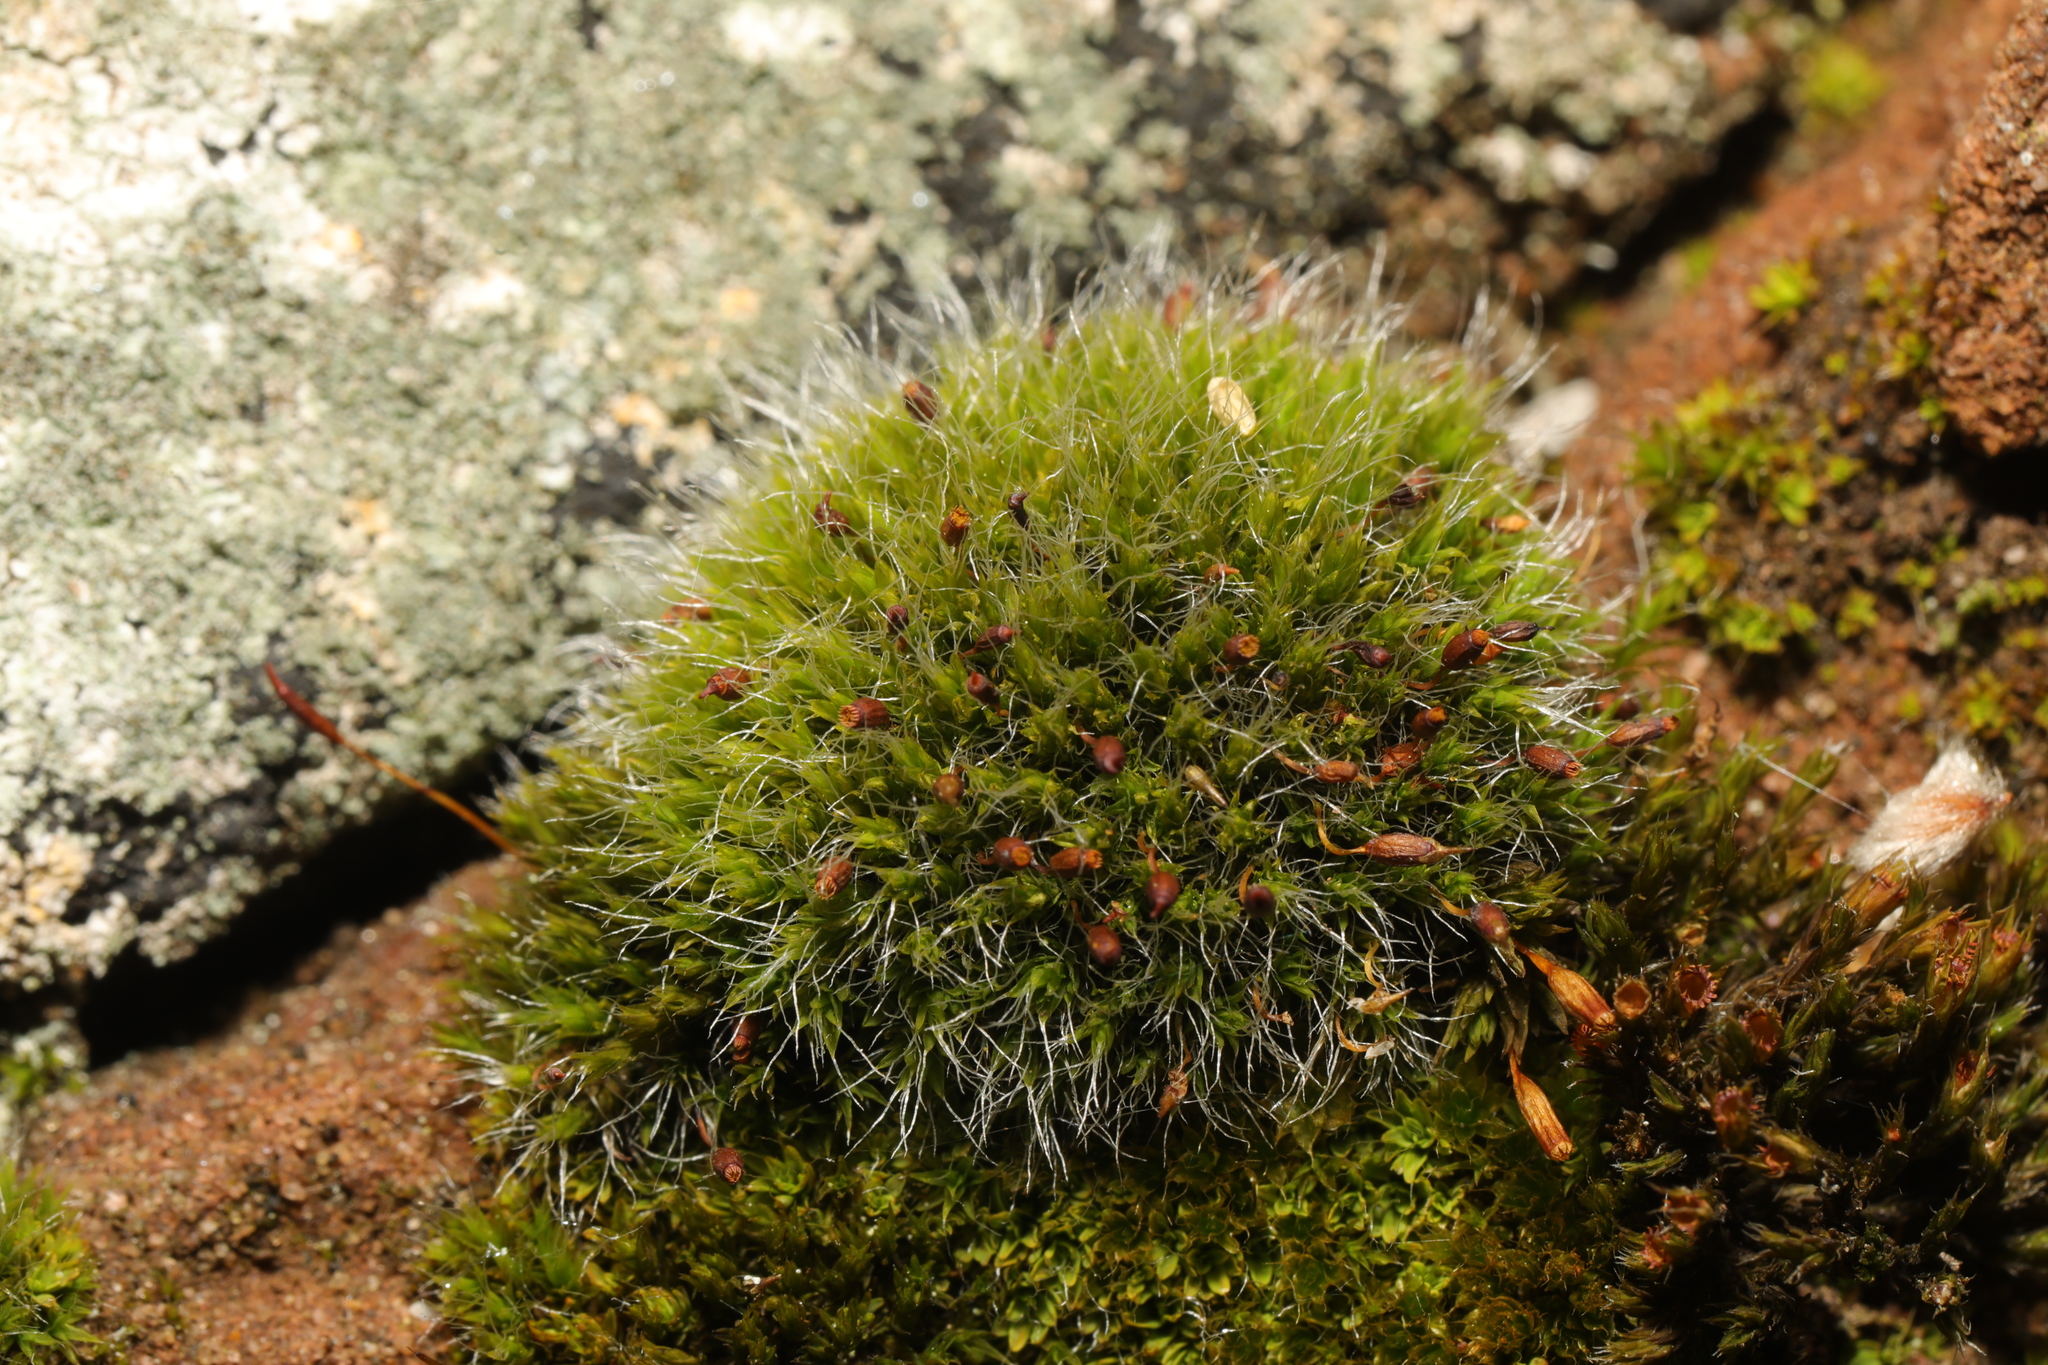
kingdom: Plantae
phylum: Bryophyta
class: Bryopsida
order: Grimmiales
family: Grimmiaceae
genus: Grimmia
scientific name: Grimmia pulvinata
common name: Grey-cushioned grimmia
